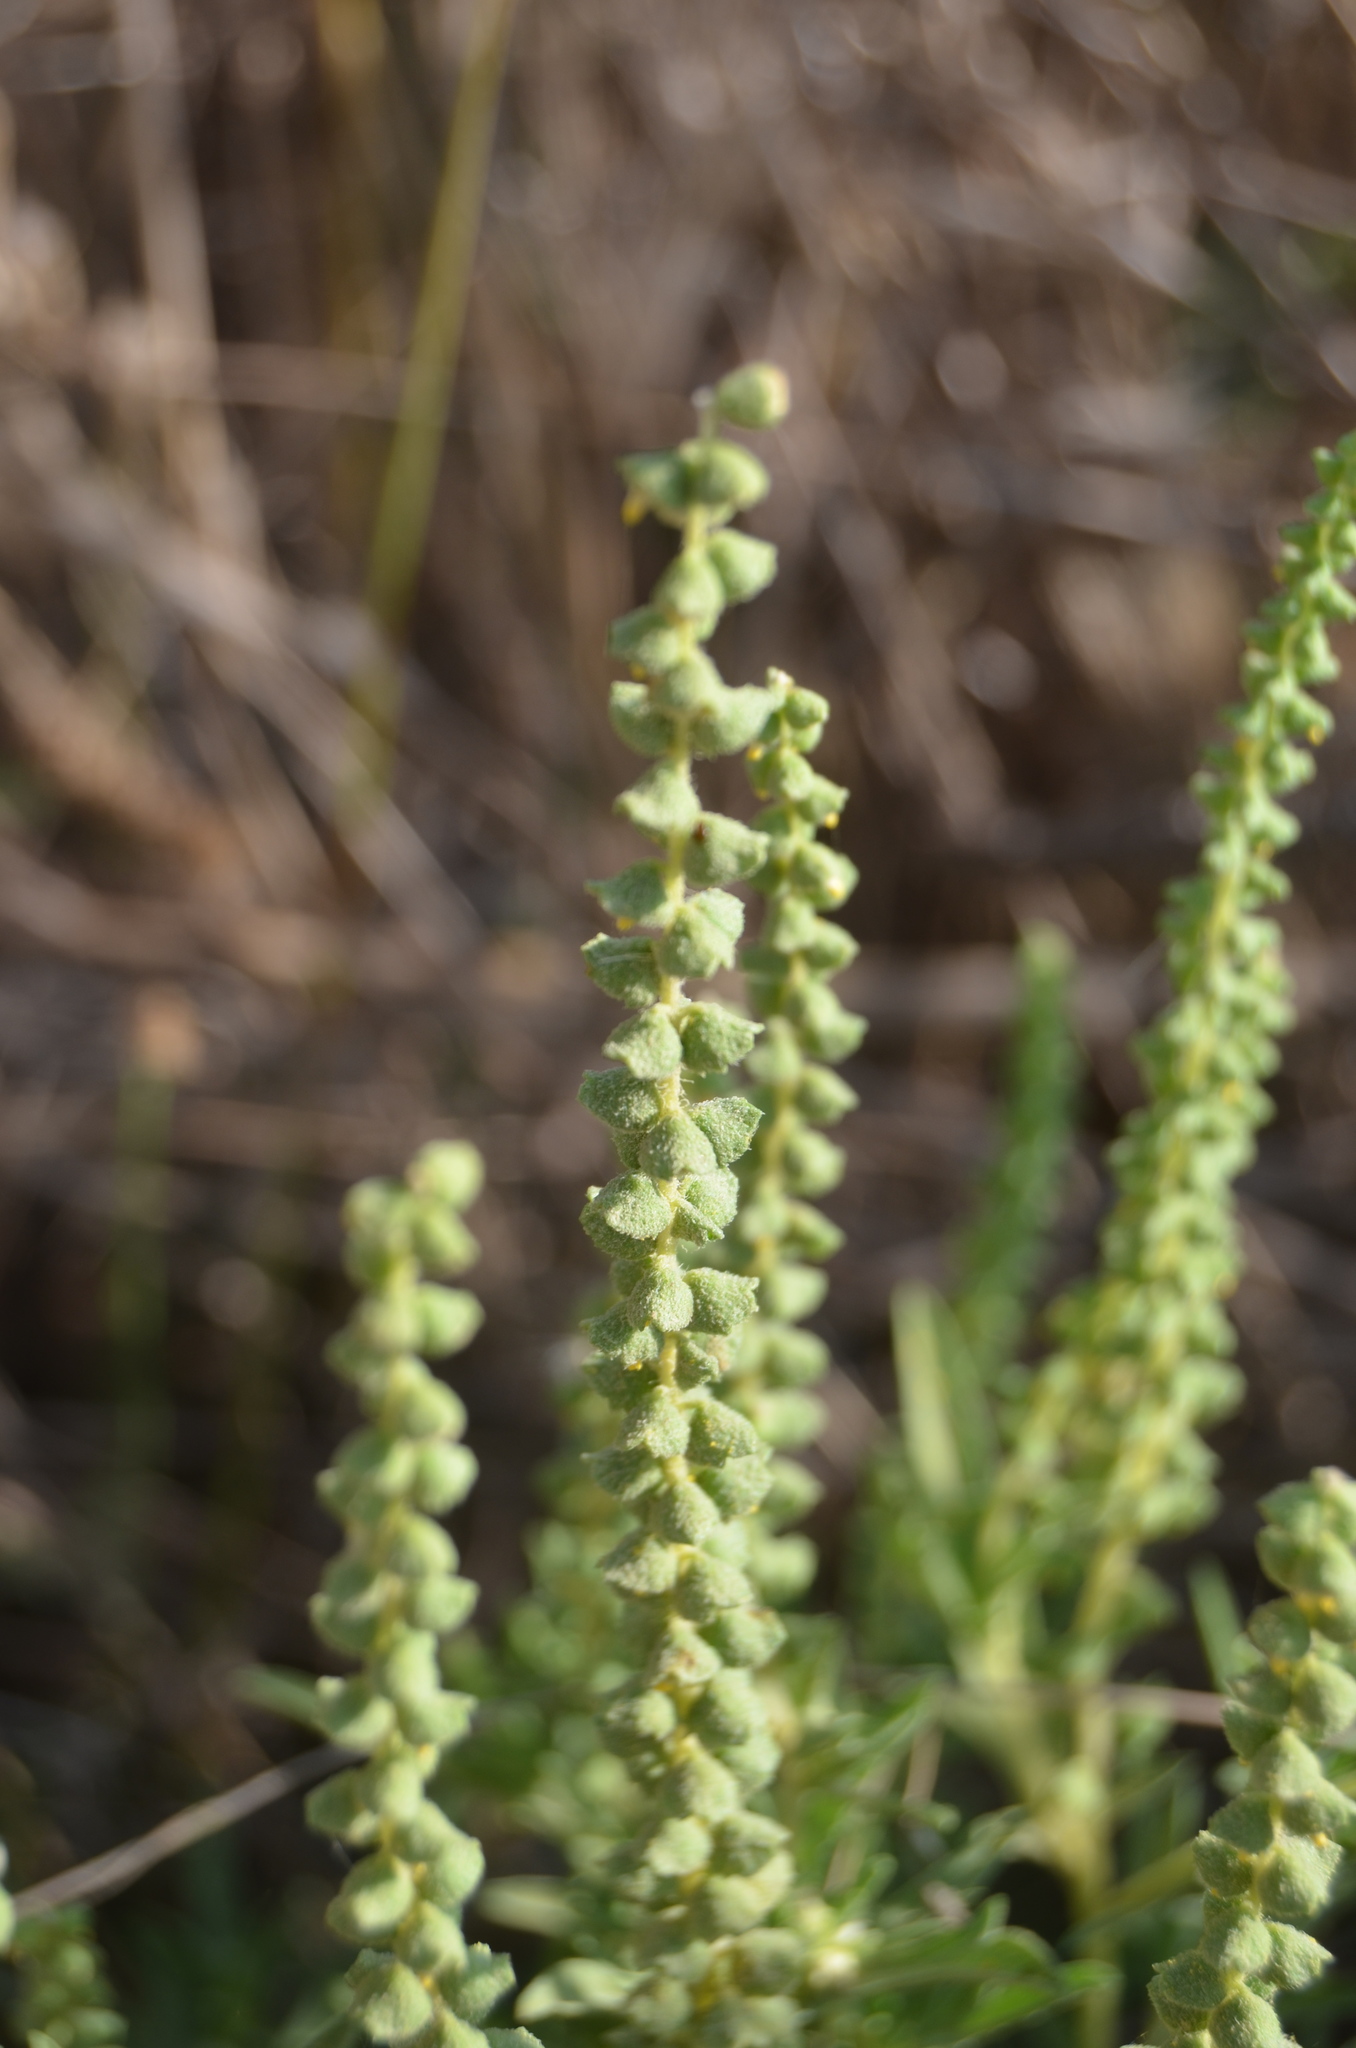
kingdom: Plantae
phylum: Tracheophyta
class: Magnoliopsida
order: Asterales
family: Asteraceae
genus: Ambrosia
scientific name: Ambrosia psilostachya
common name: Perennial ragweed
